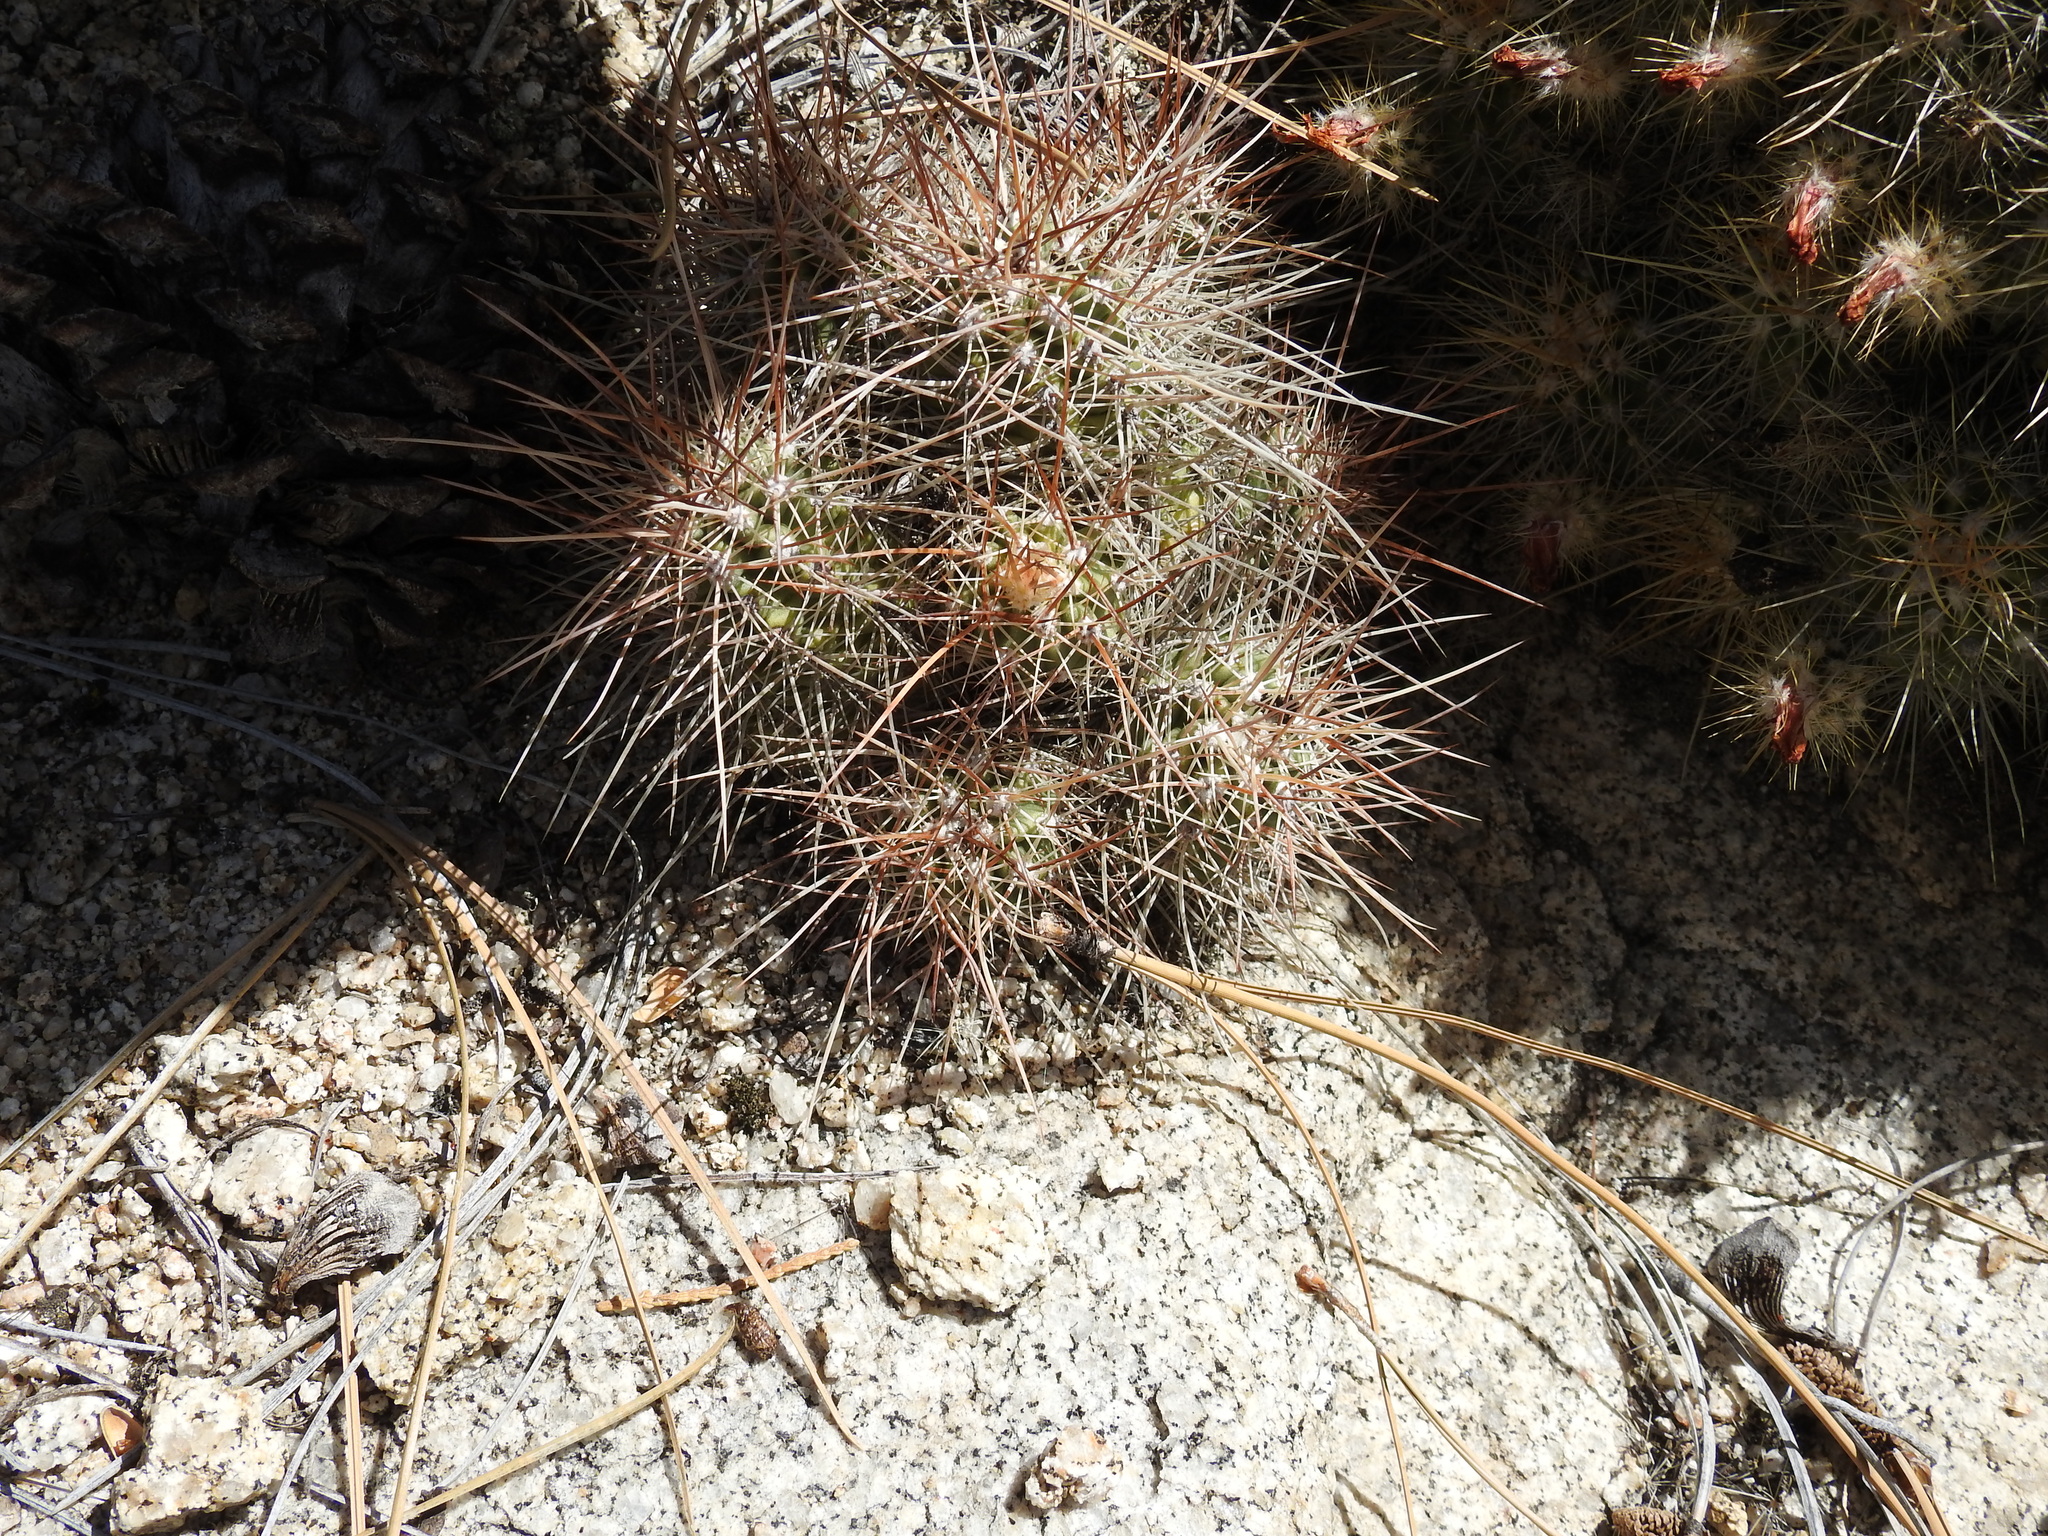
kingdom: Plantae
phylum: Tracheophyta
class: Magnoliopsida
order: Caryophyllales
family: Cactaceae
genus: Echinocereus
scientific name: Echinocereus pacificus
